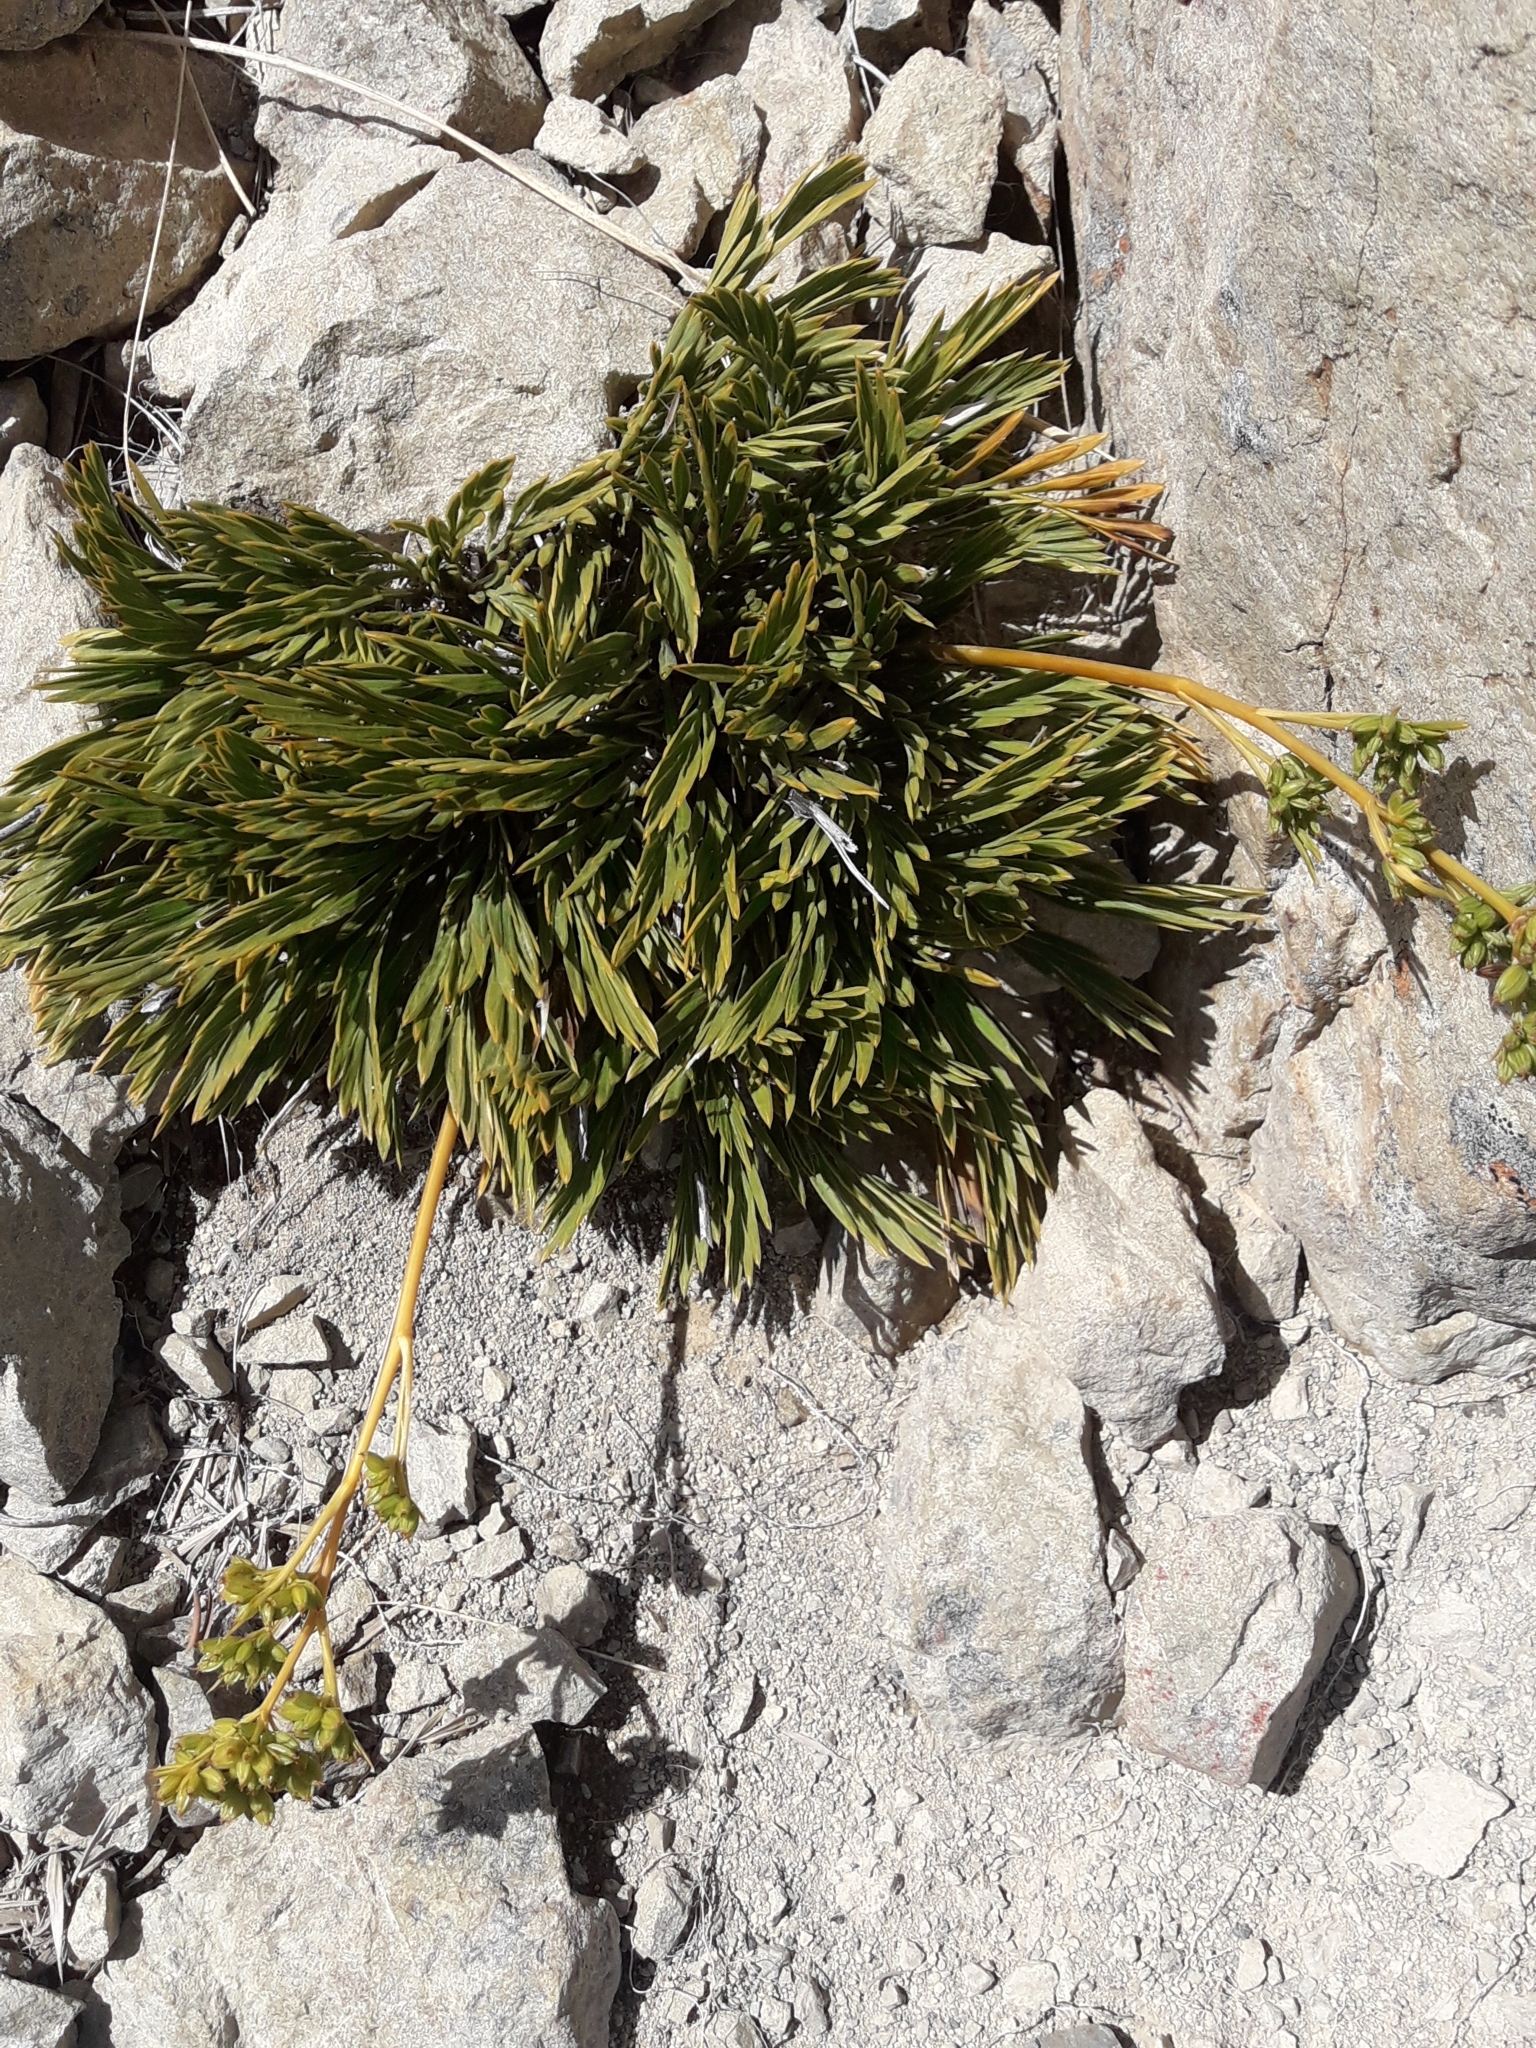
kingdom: Plantae
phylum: Tracheophyta
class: Magnoliopsida
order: Apiales
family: Apiaceae
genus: Aciphylla
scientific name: Aciphylla monroi
